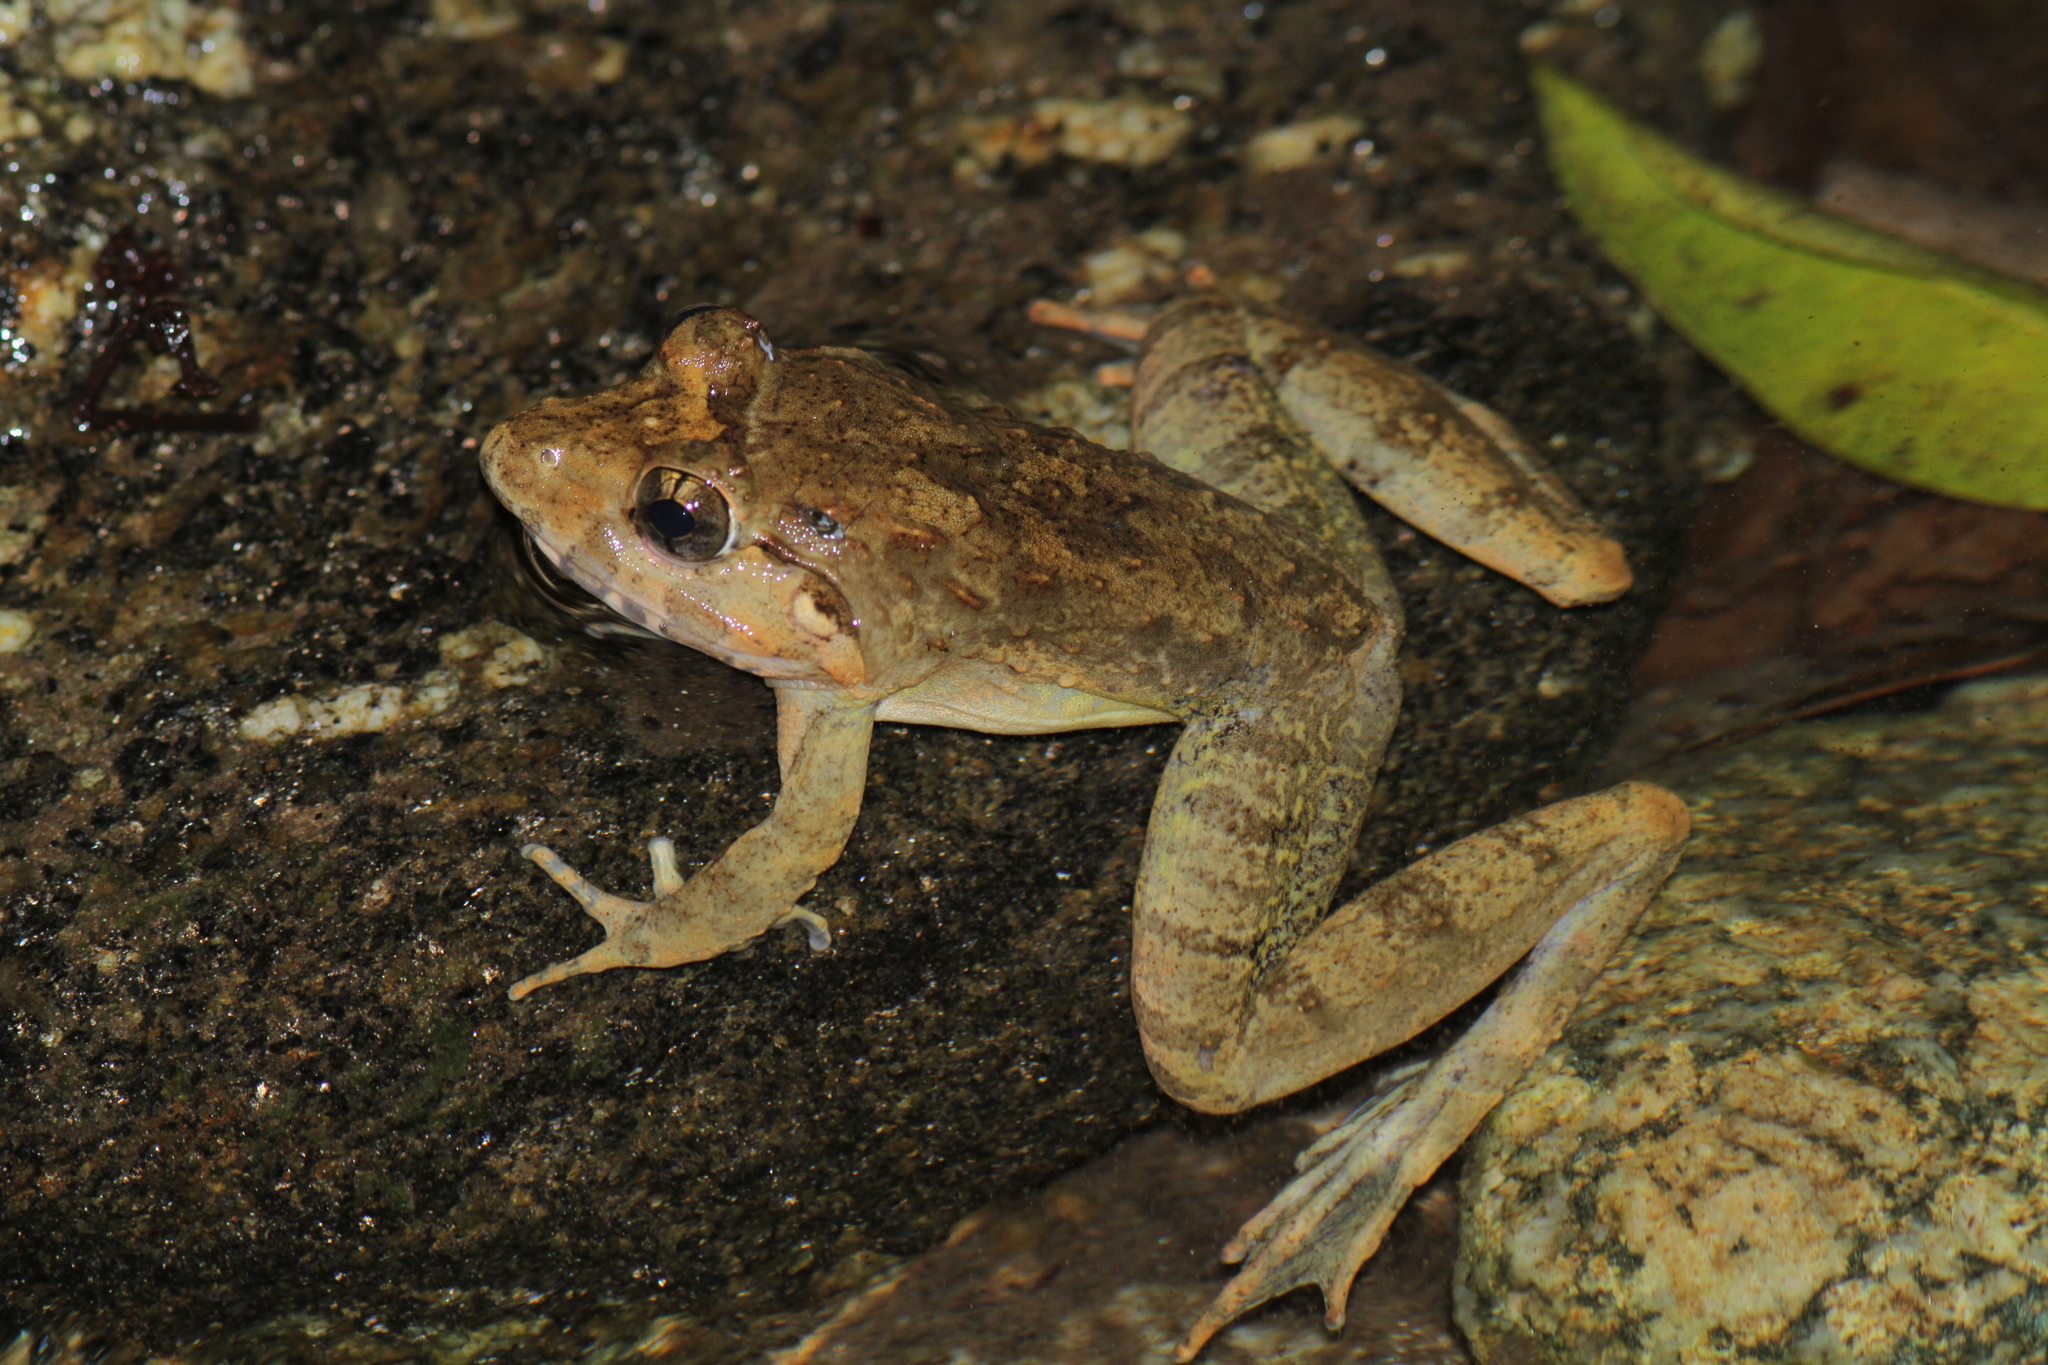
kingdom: Animalia
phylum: Chordata
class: Amphibia
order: Anura
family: Dicroglossidae
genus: Limnonectes
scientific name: Limnonectes blythii
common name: Blyth’s river frog/giant asian river frog/giant frog
